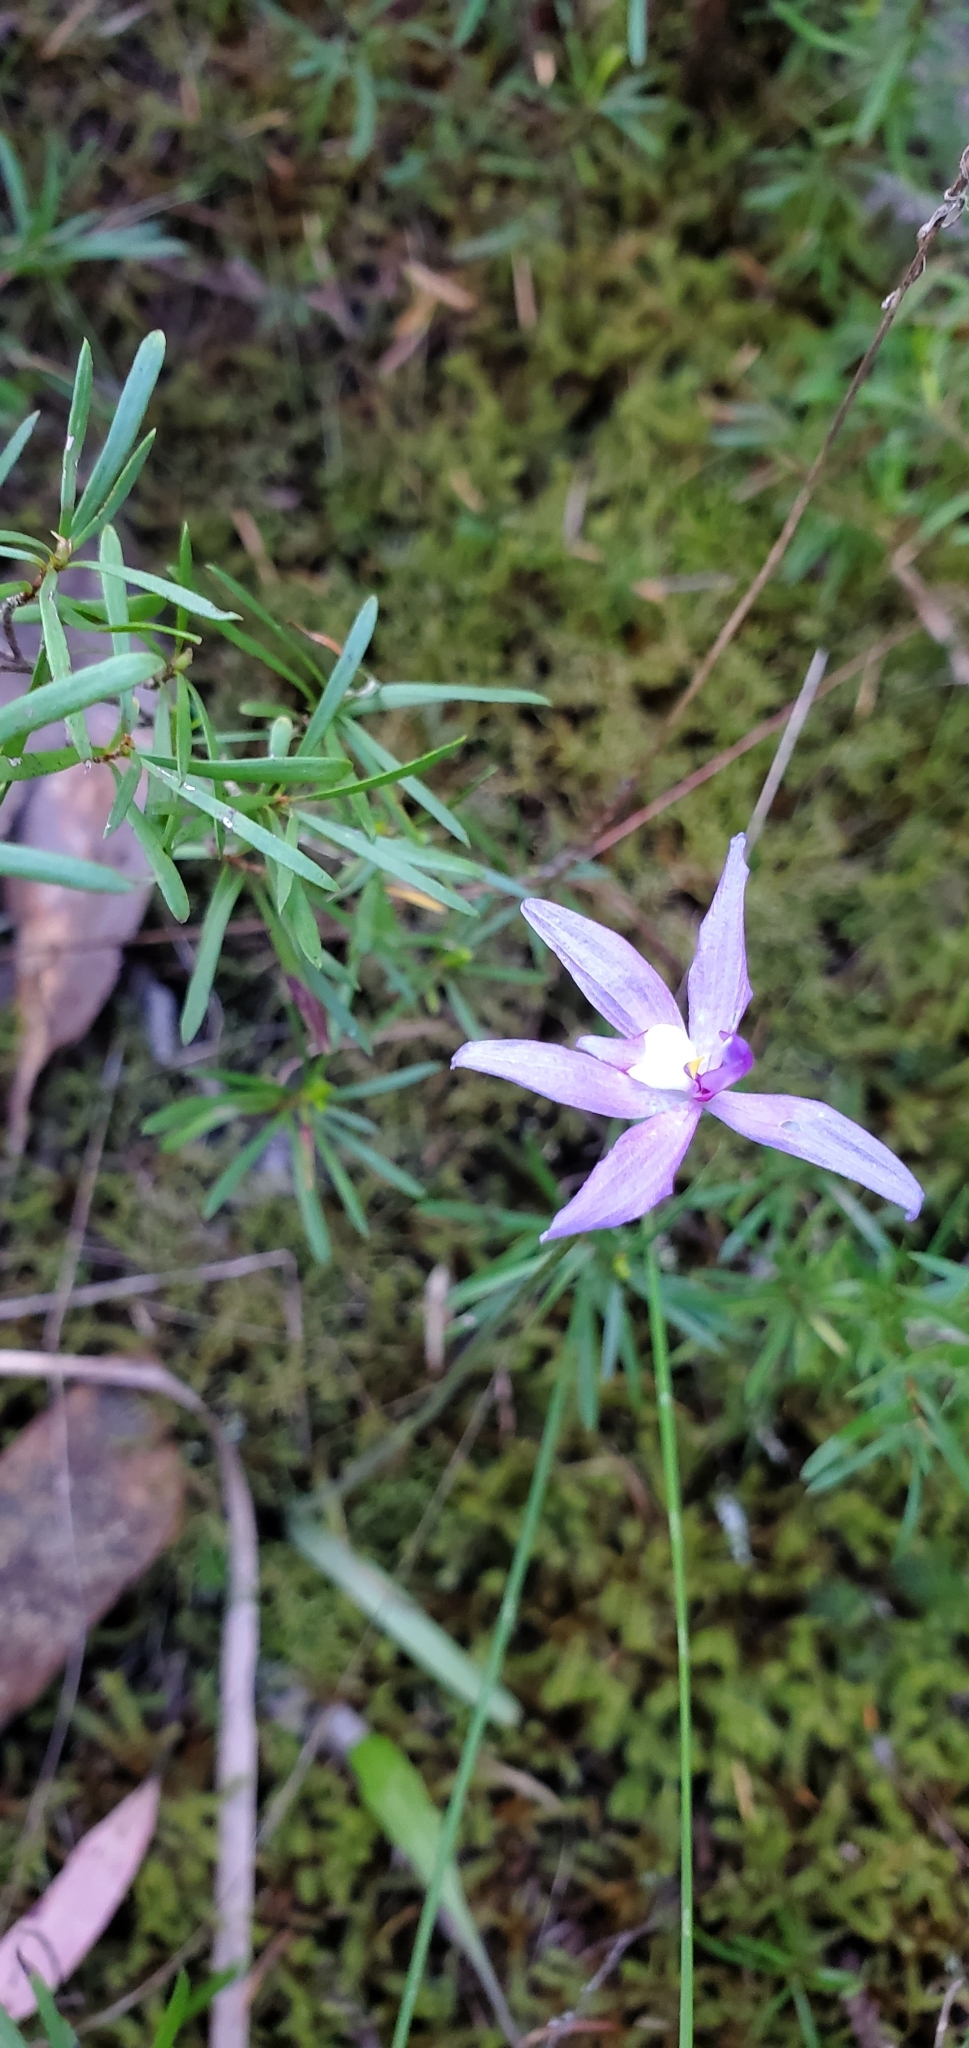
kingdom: Plantae
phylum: Tracheophyta
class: Liliopsida
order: Asparagales
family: Orchidaceae
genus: Caladenia
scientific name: Caladenia major
